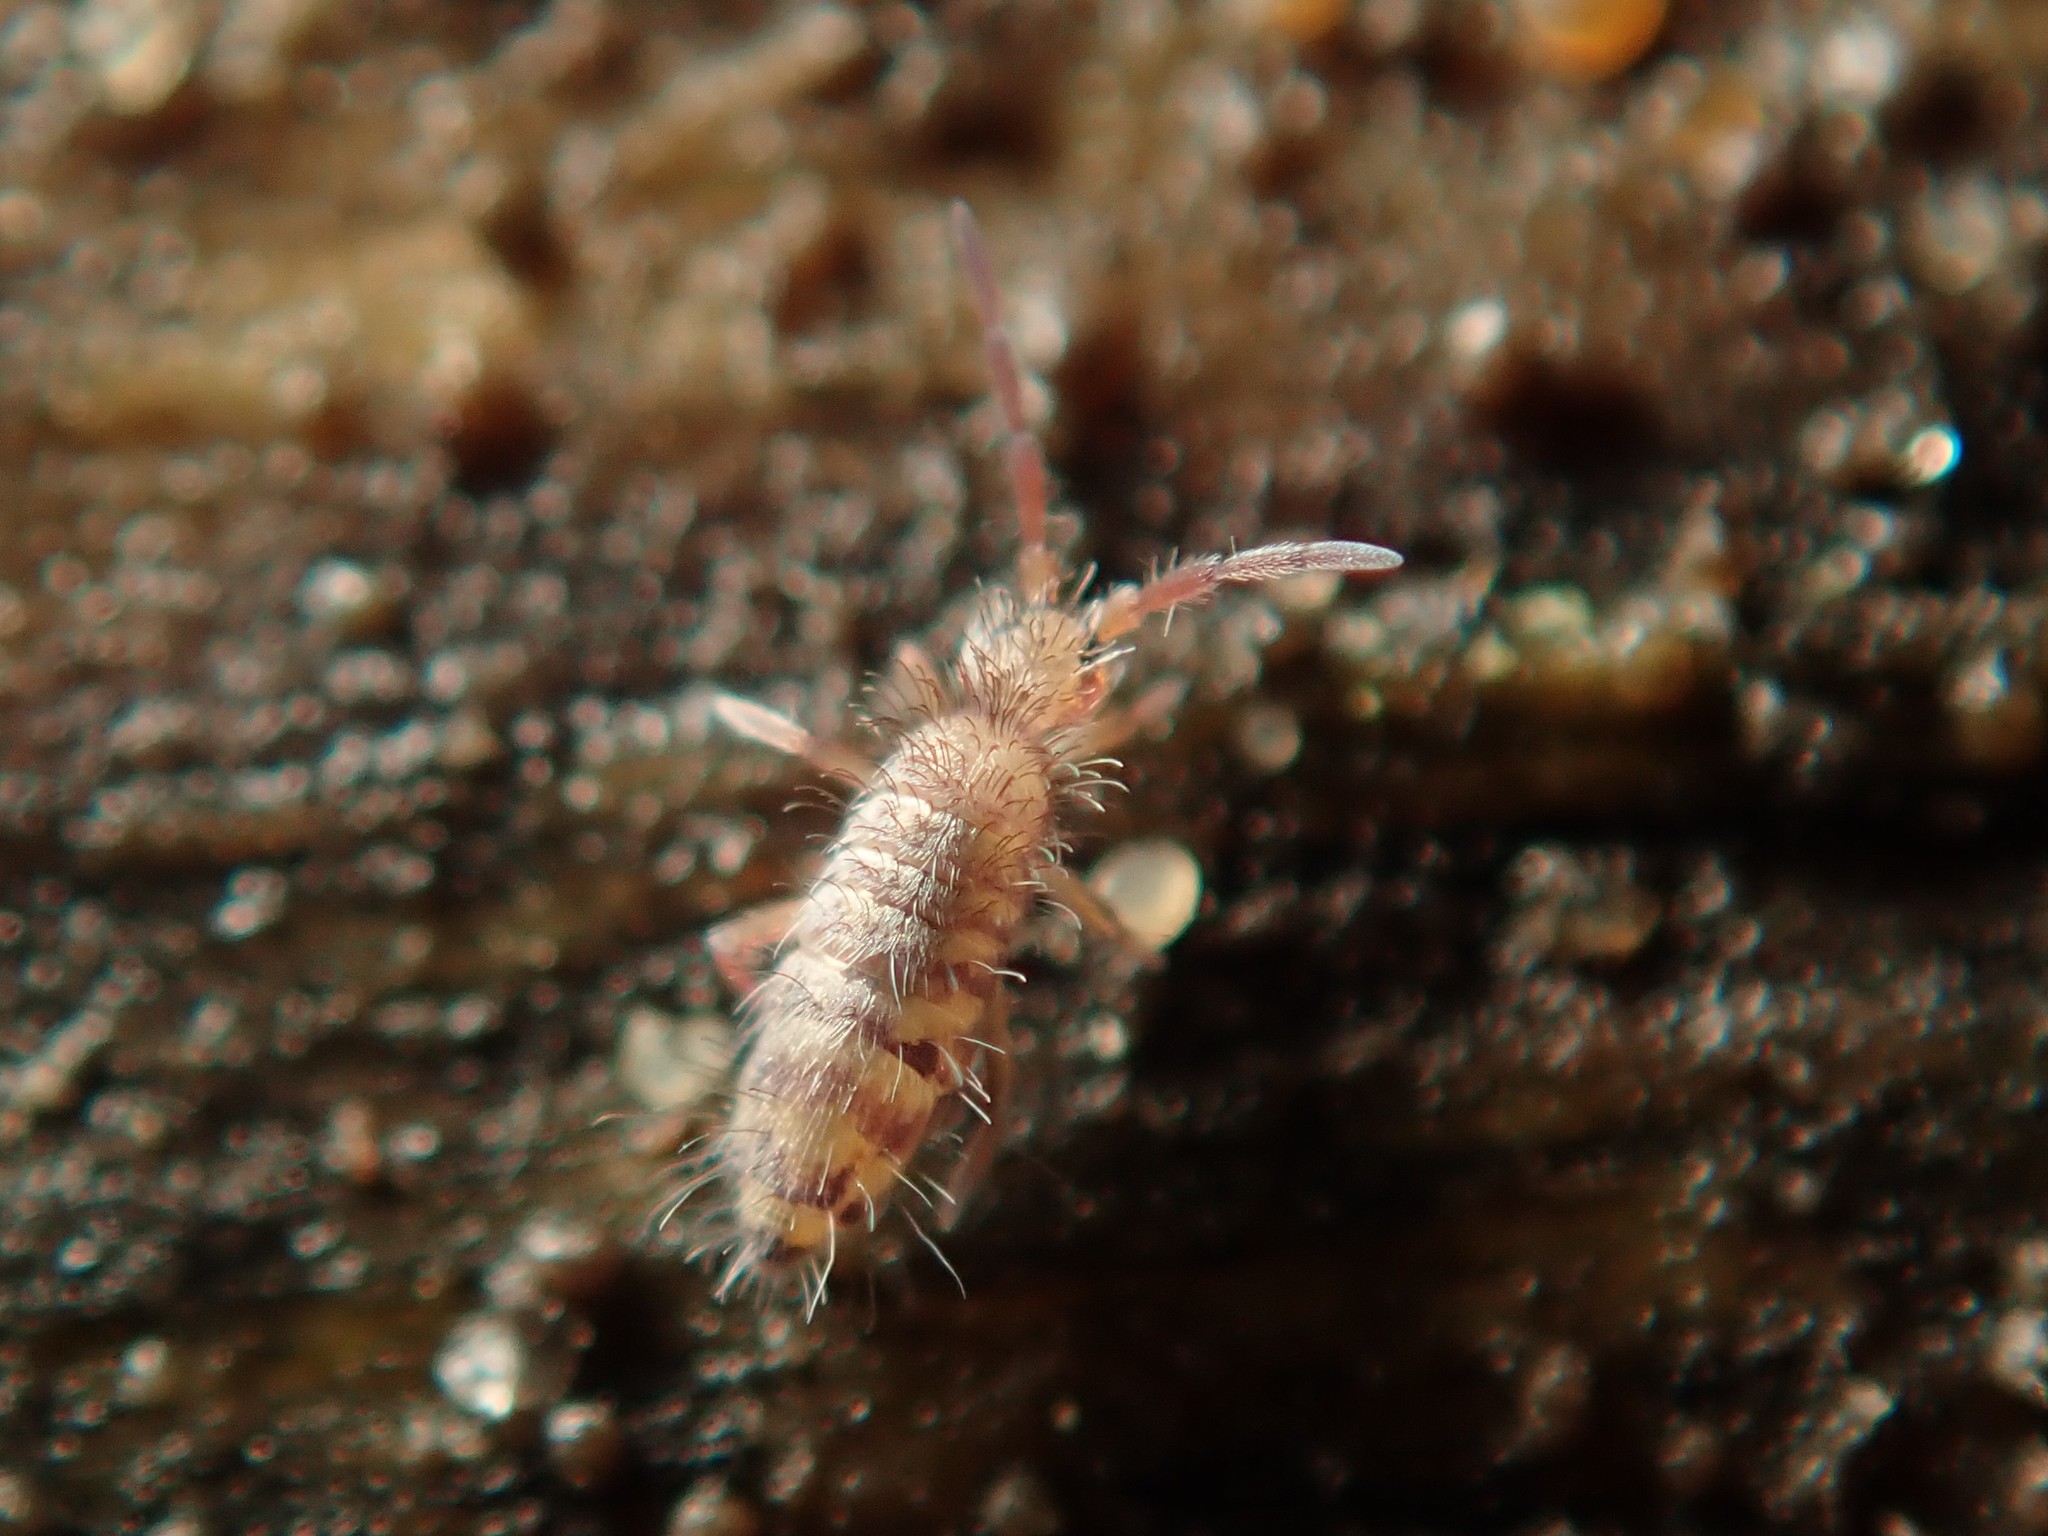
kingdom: Animalia
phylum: Arthropoda
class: Collembola
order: Entomobryomorpha
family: Entomobryidae
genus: Entomobrya
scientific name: Entomobrya multifasciata
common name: Springtail
